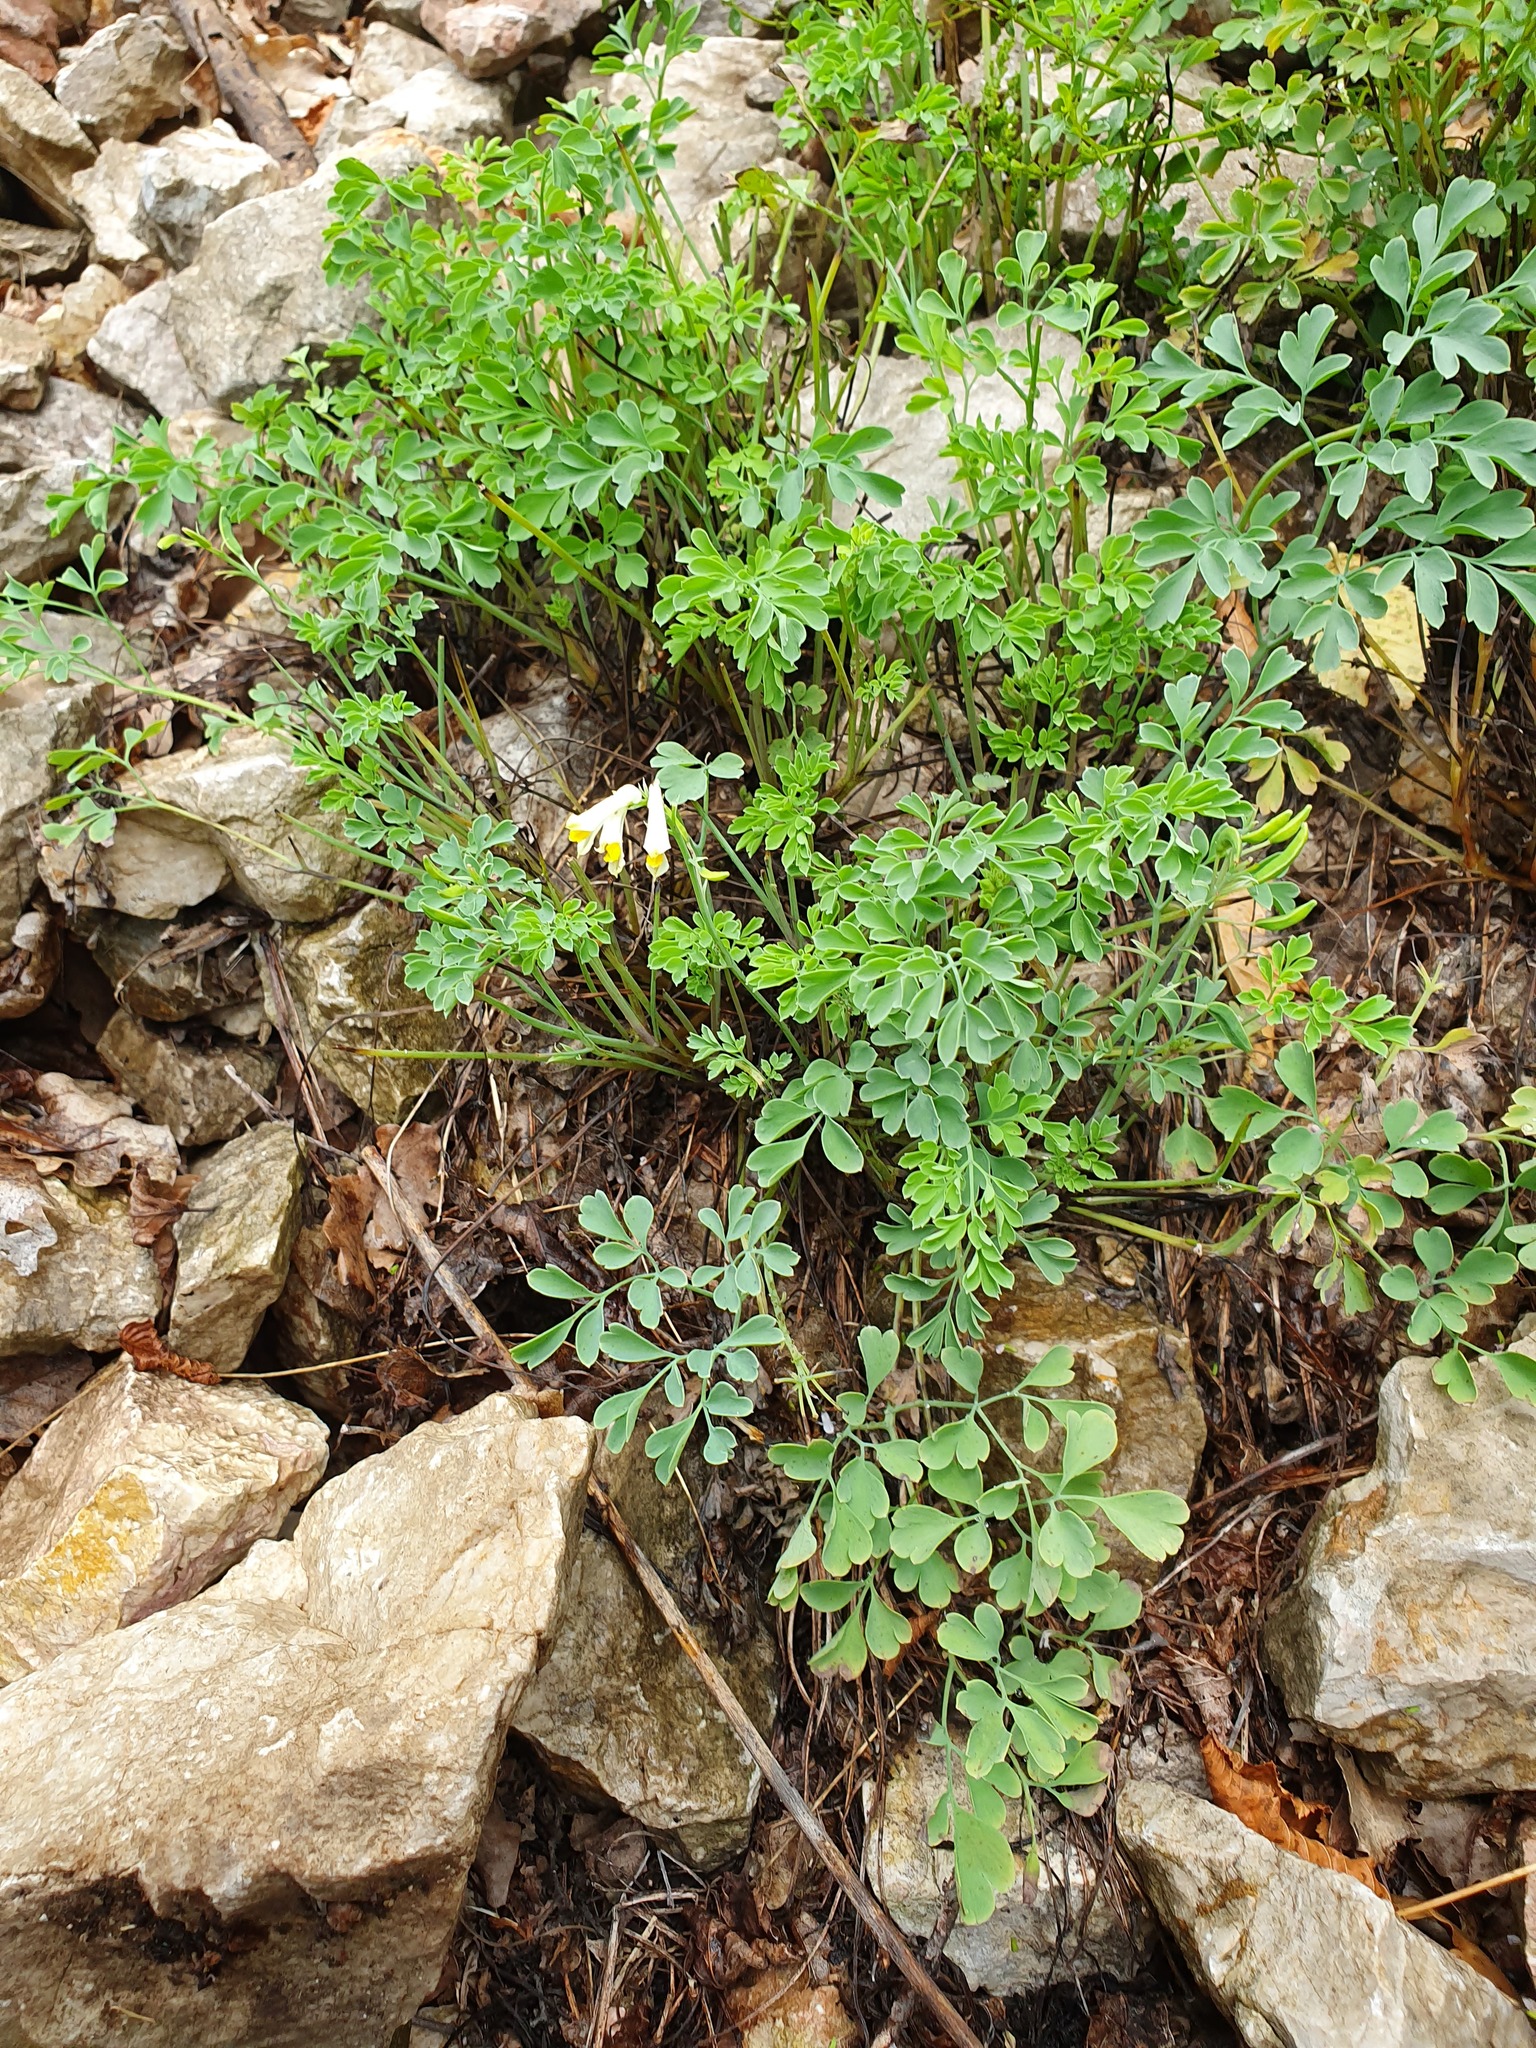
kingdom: Plantae
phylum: Tracheophyta
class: Magnoliopsida
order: Ranunculales
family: Papaveraceae
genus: Pseudofumaria
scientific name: Pseudofumaria alba
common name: Pale corydalis
